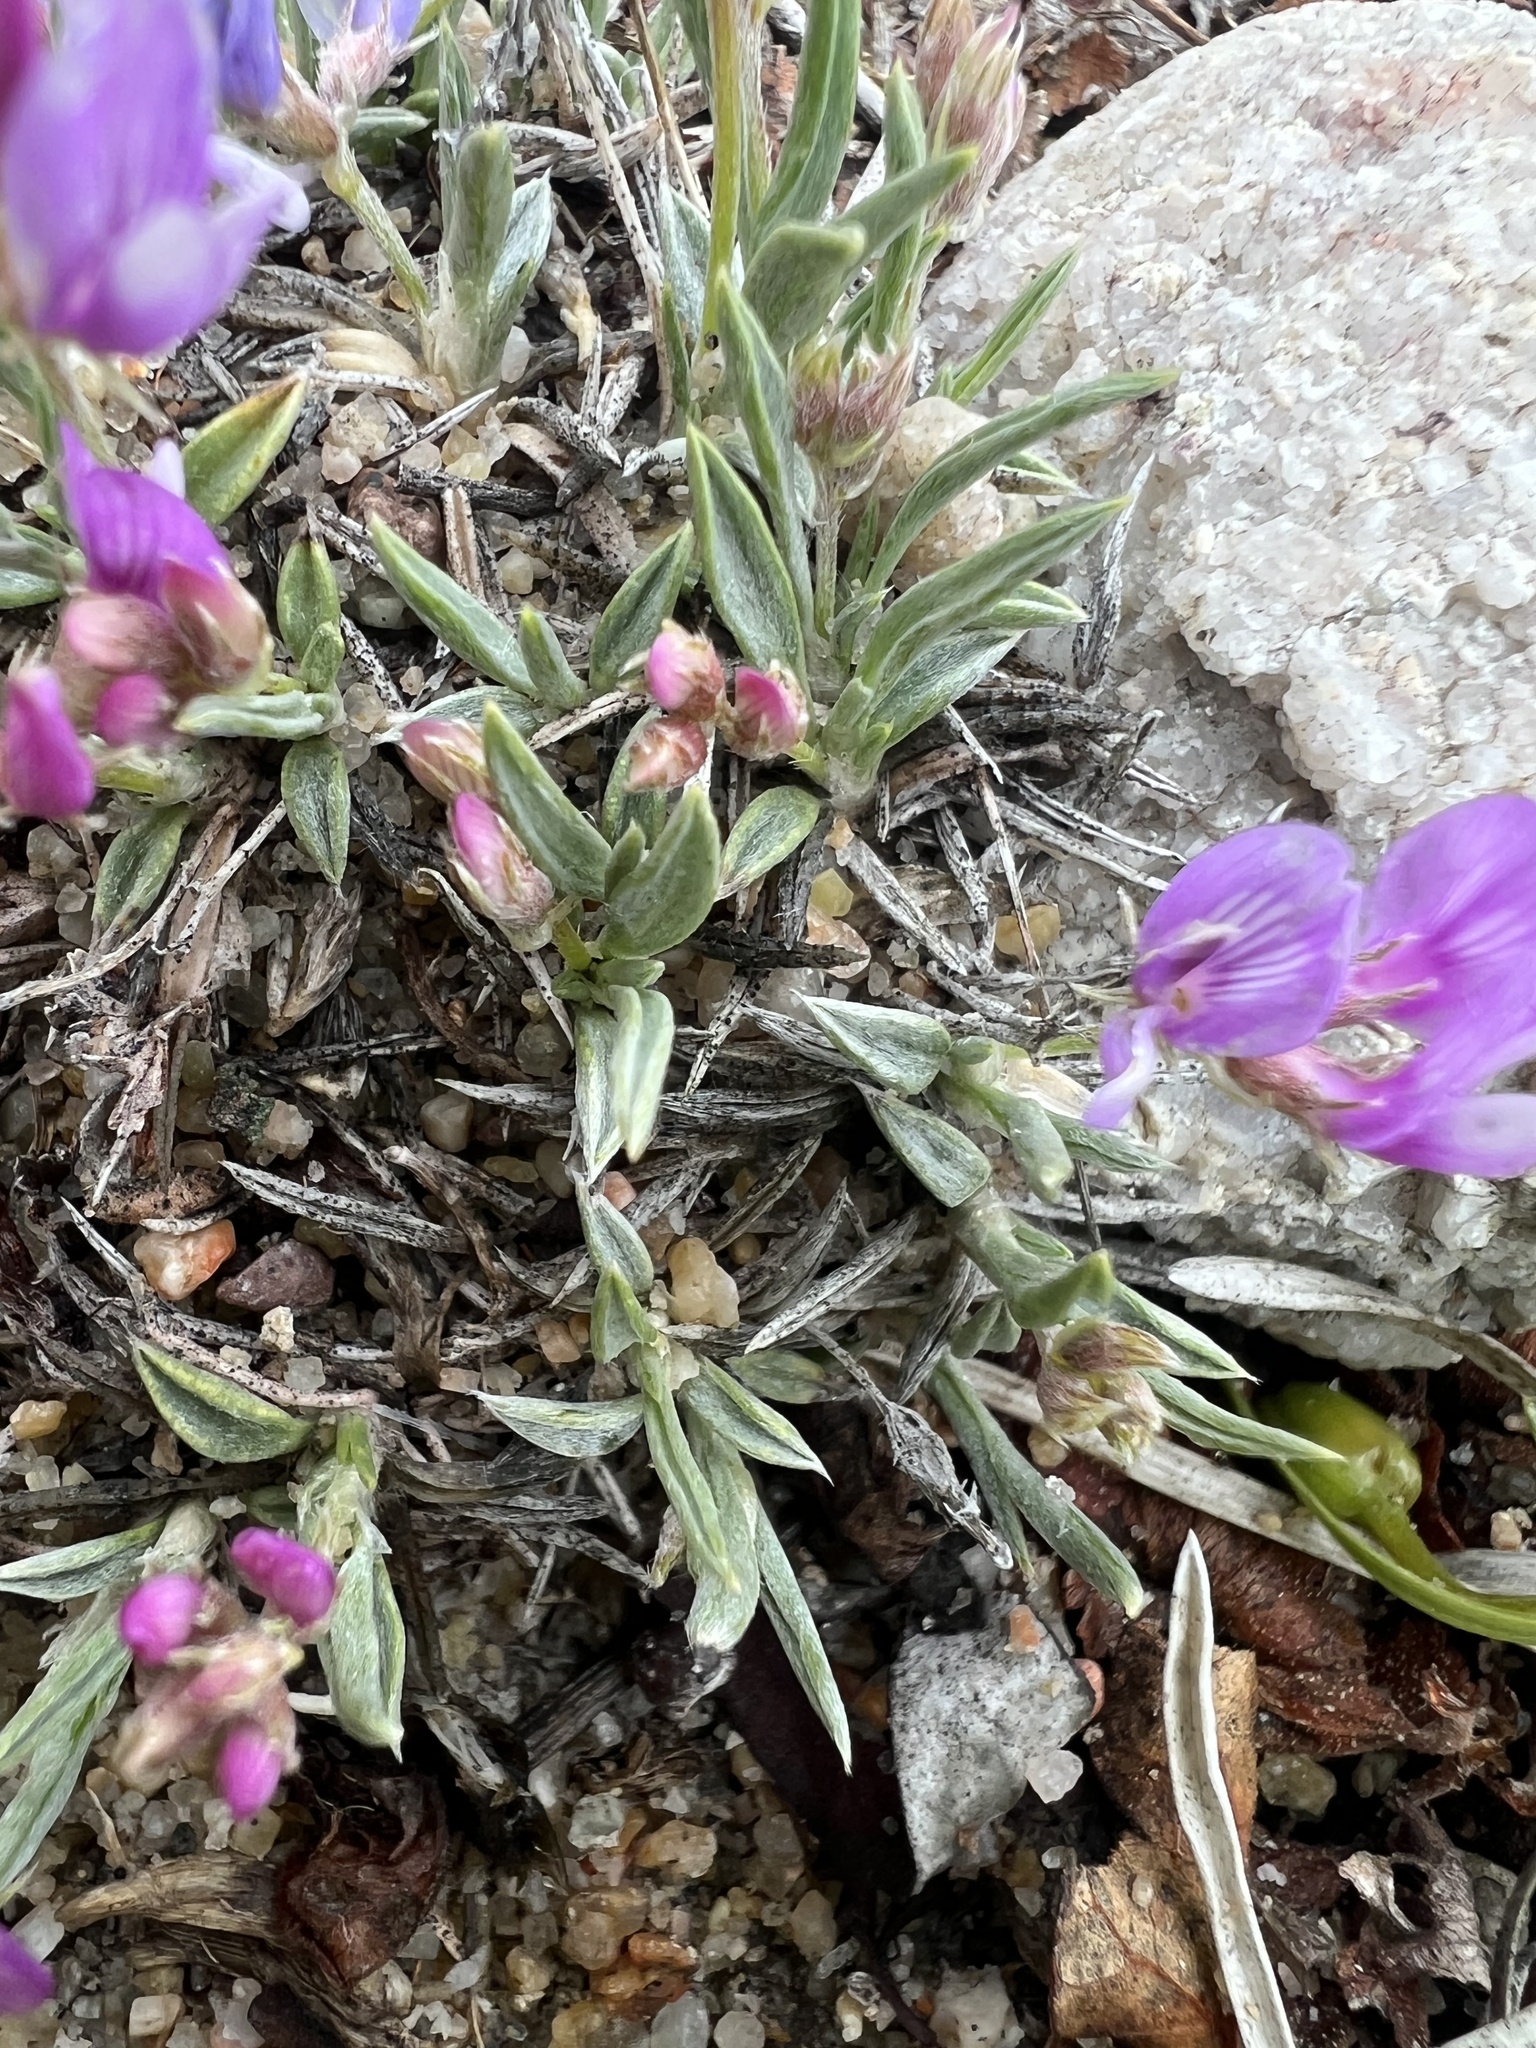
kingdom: Plantae
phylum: Tracheophyta
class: Magnoliopsida
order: Fabales
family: Fabaceae
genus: Astragalus
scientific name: Astragalus spatulatus
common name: Draba milk-vetch
